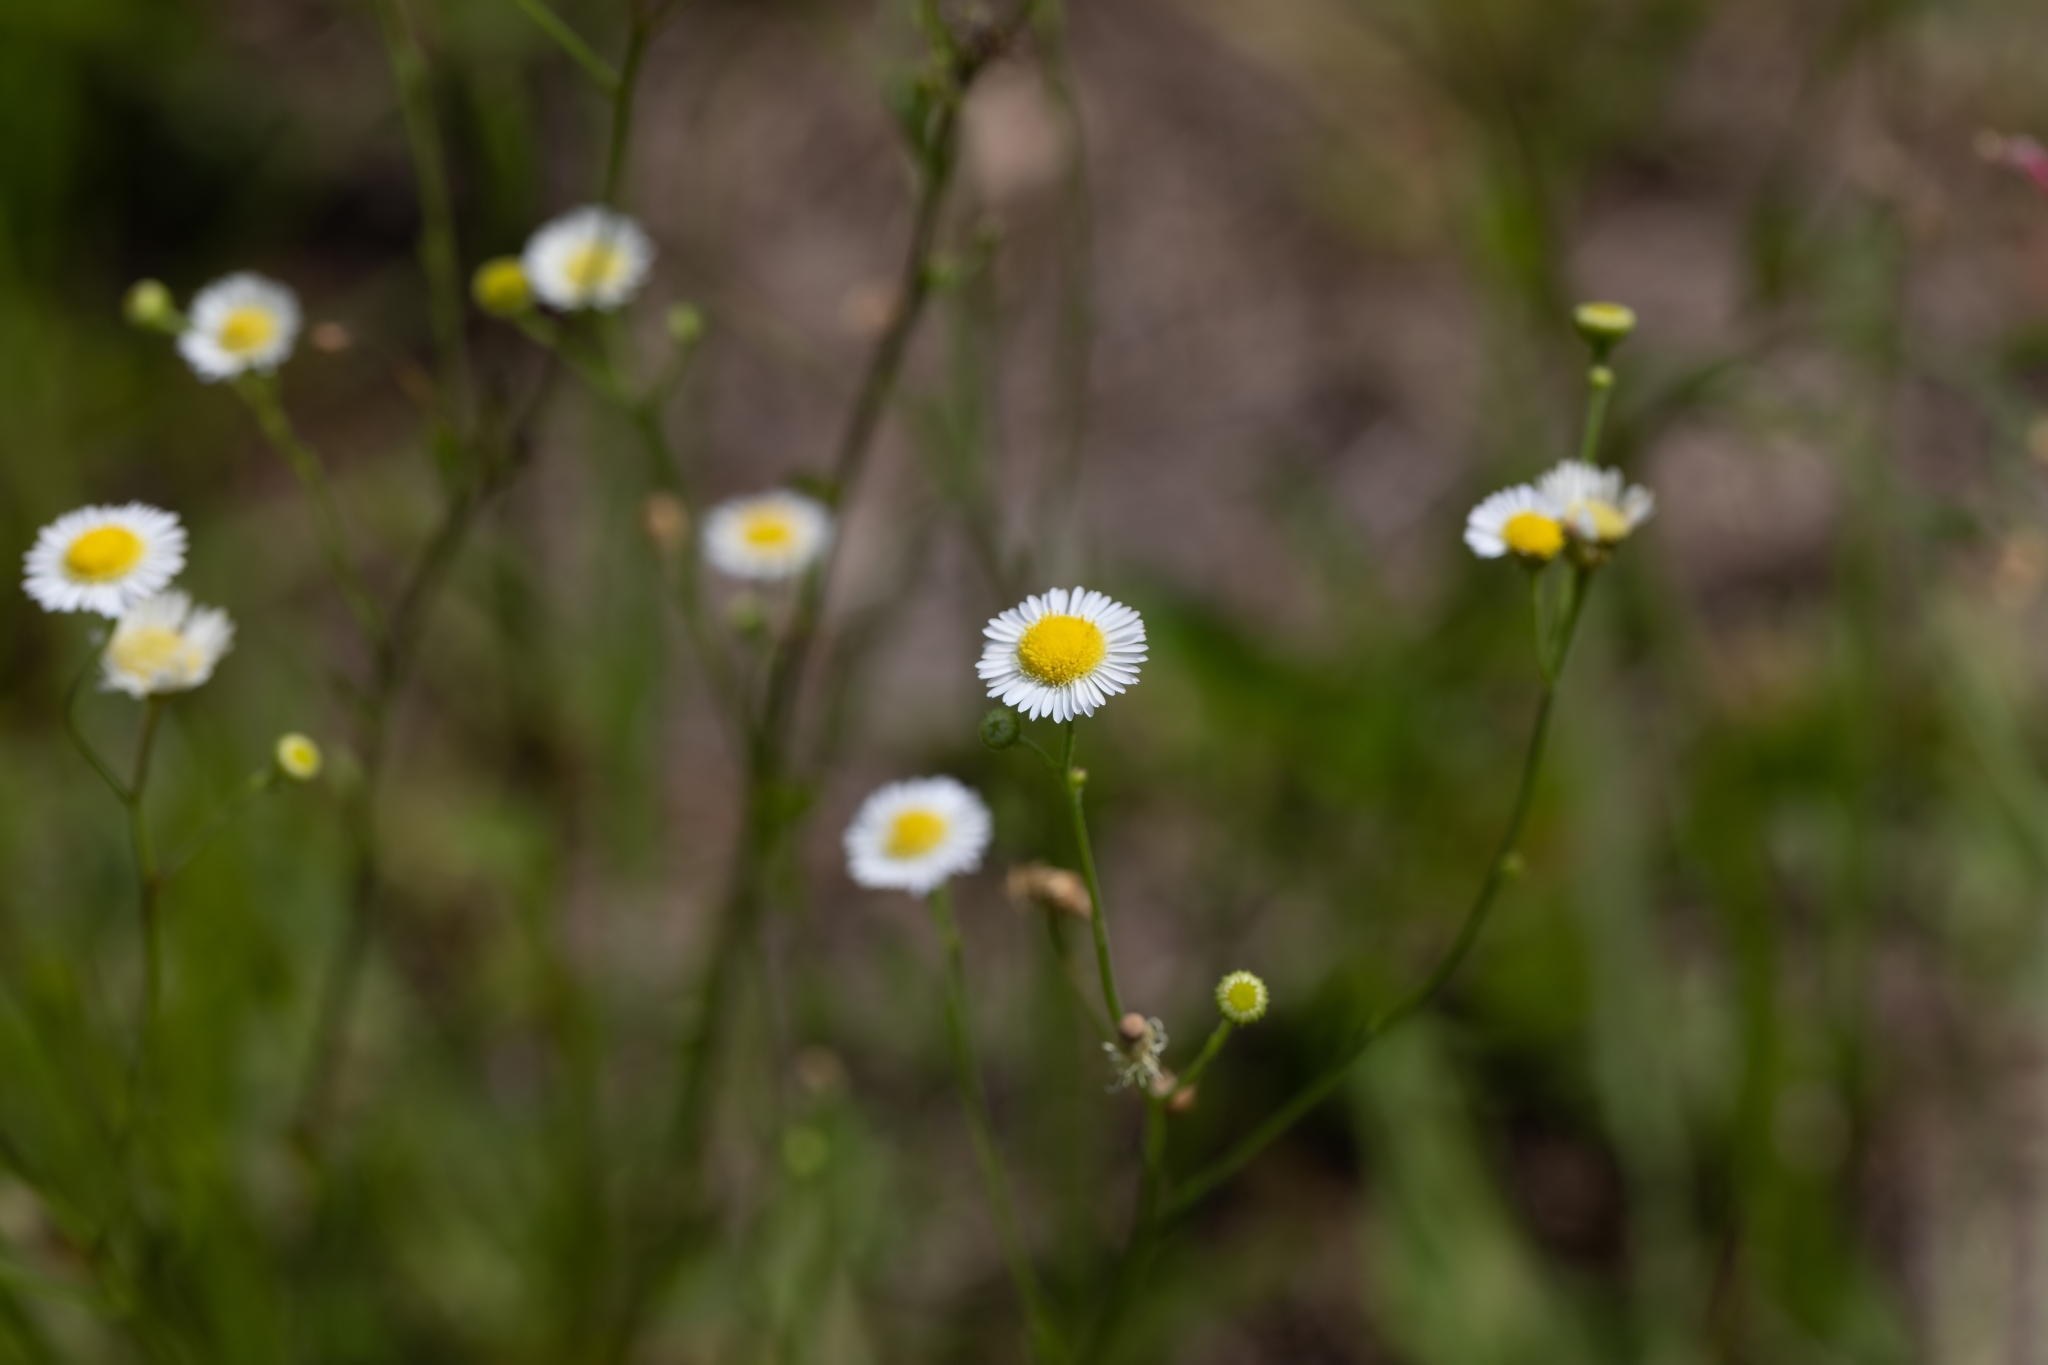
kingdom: Plantae
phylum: Tracheophyta
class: Magnoliopsida
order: Asterales
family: Asteraceae
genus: Erigeron
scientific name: Erigeron quercifolius
